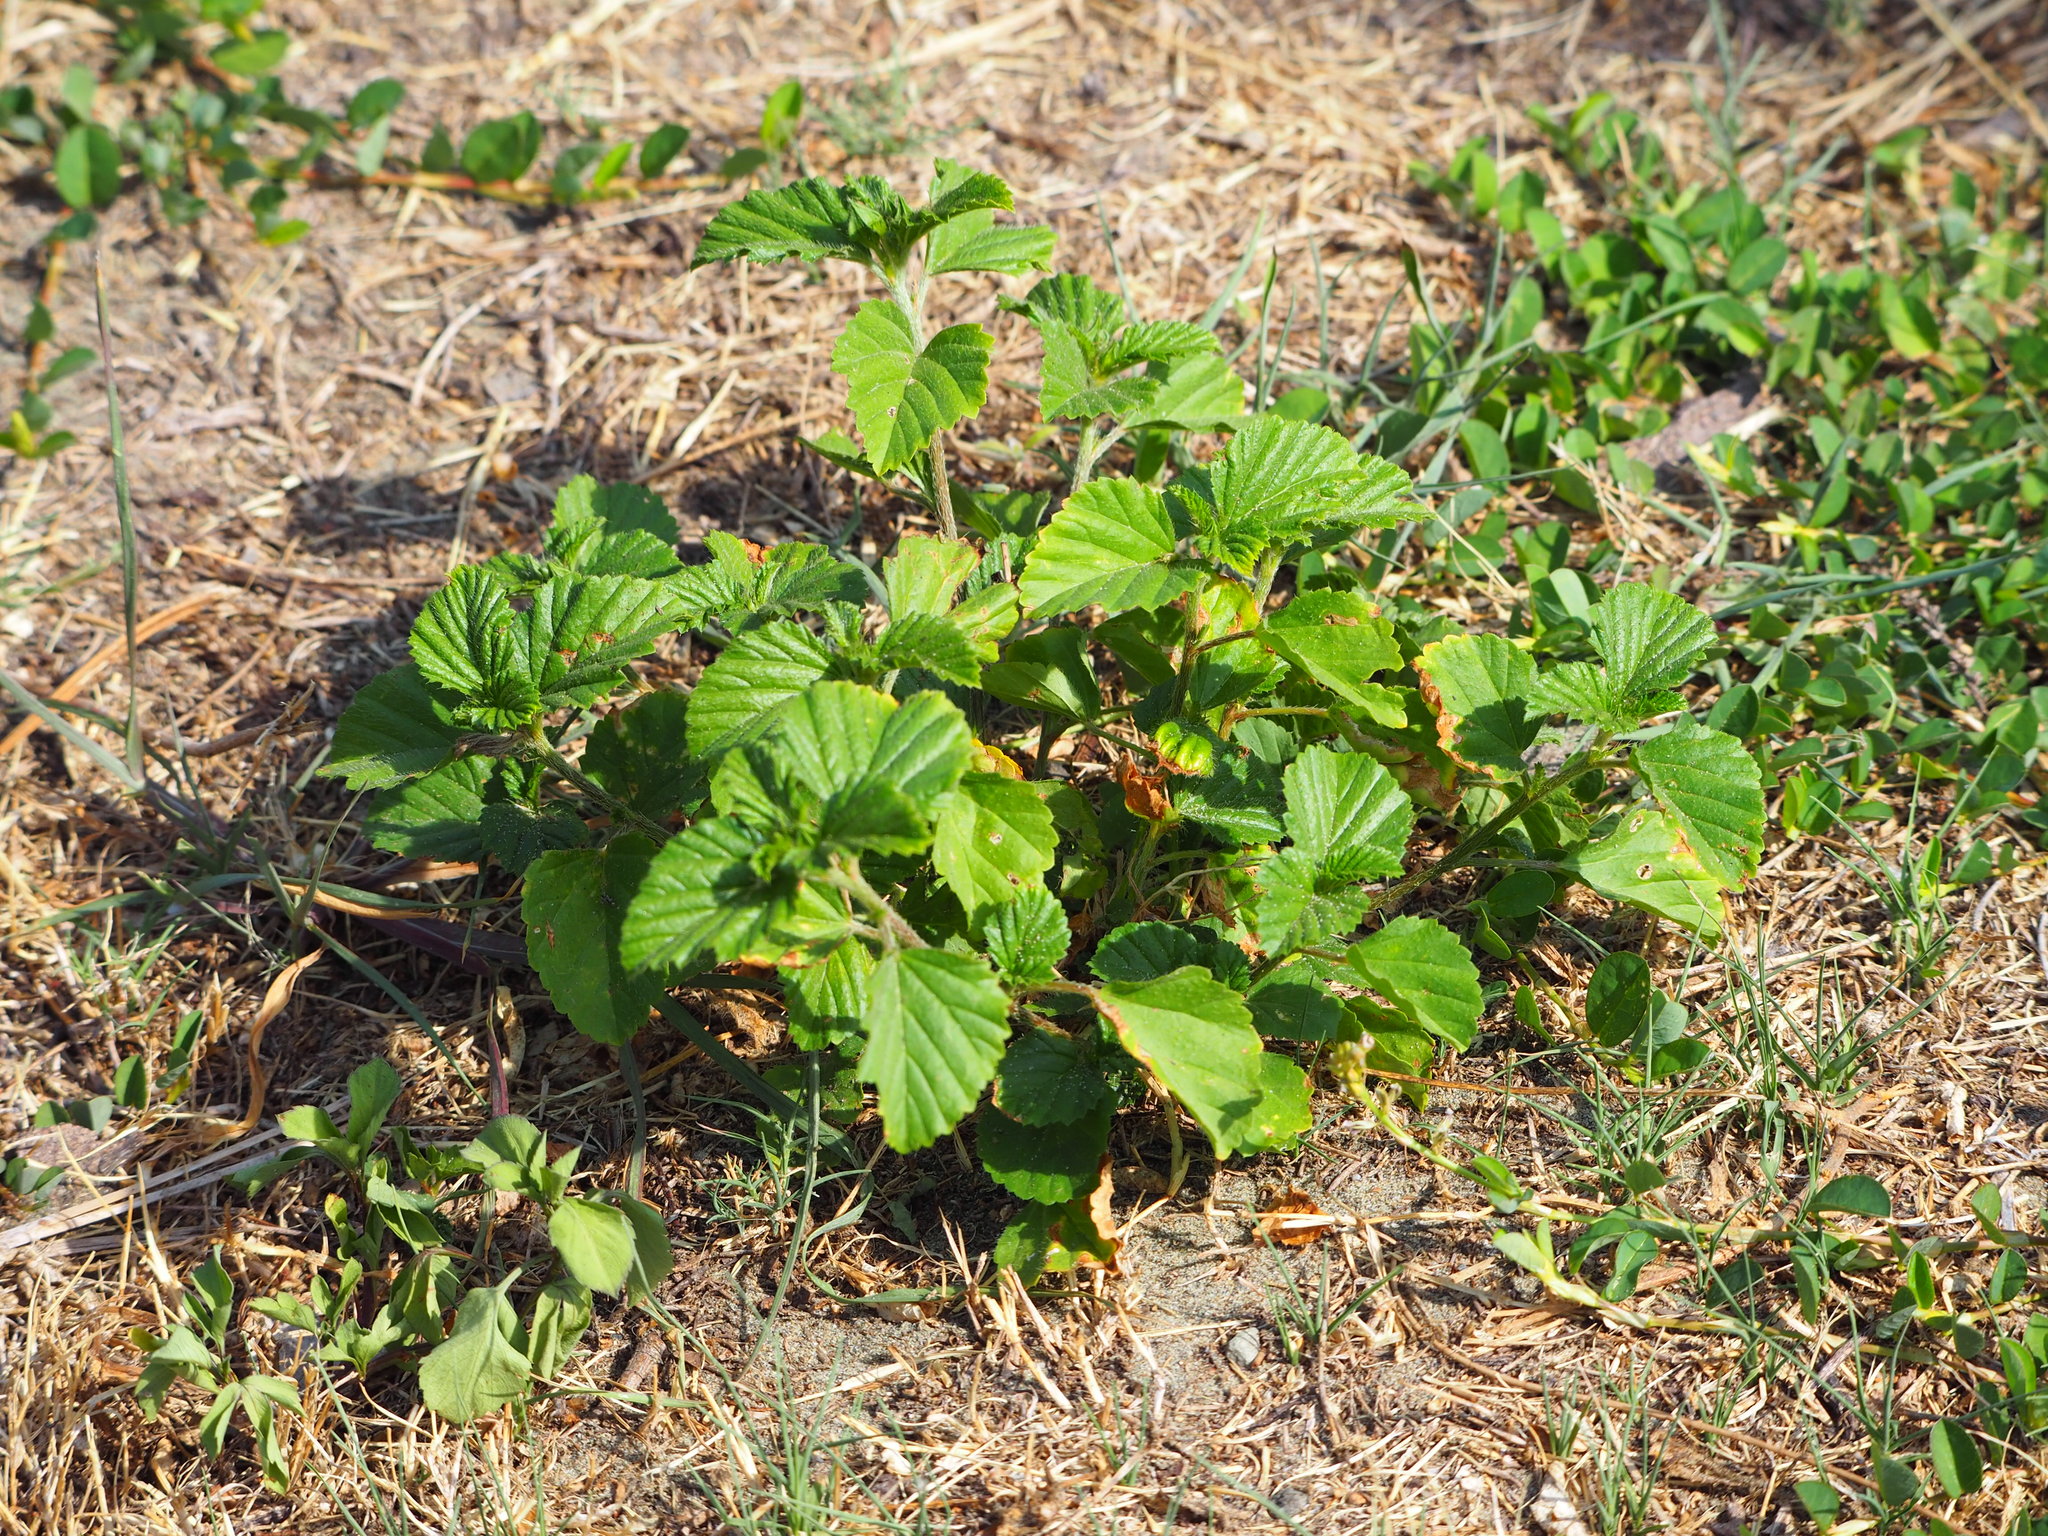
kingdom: Plantae
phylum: Tracheophyta
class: Magnoliopsida
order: Malvales
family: Malvaceae
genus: Malvastrum
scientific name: Malvastrum coromandelianum
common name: Threelobe false mallow
